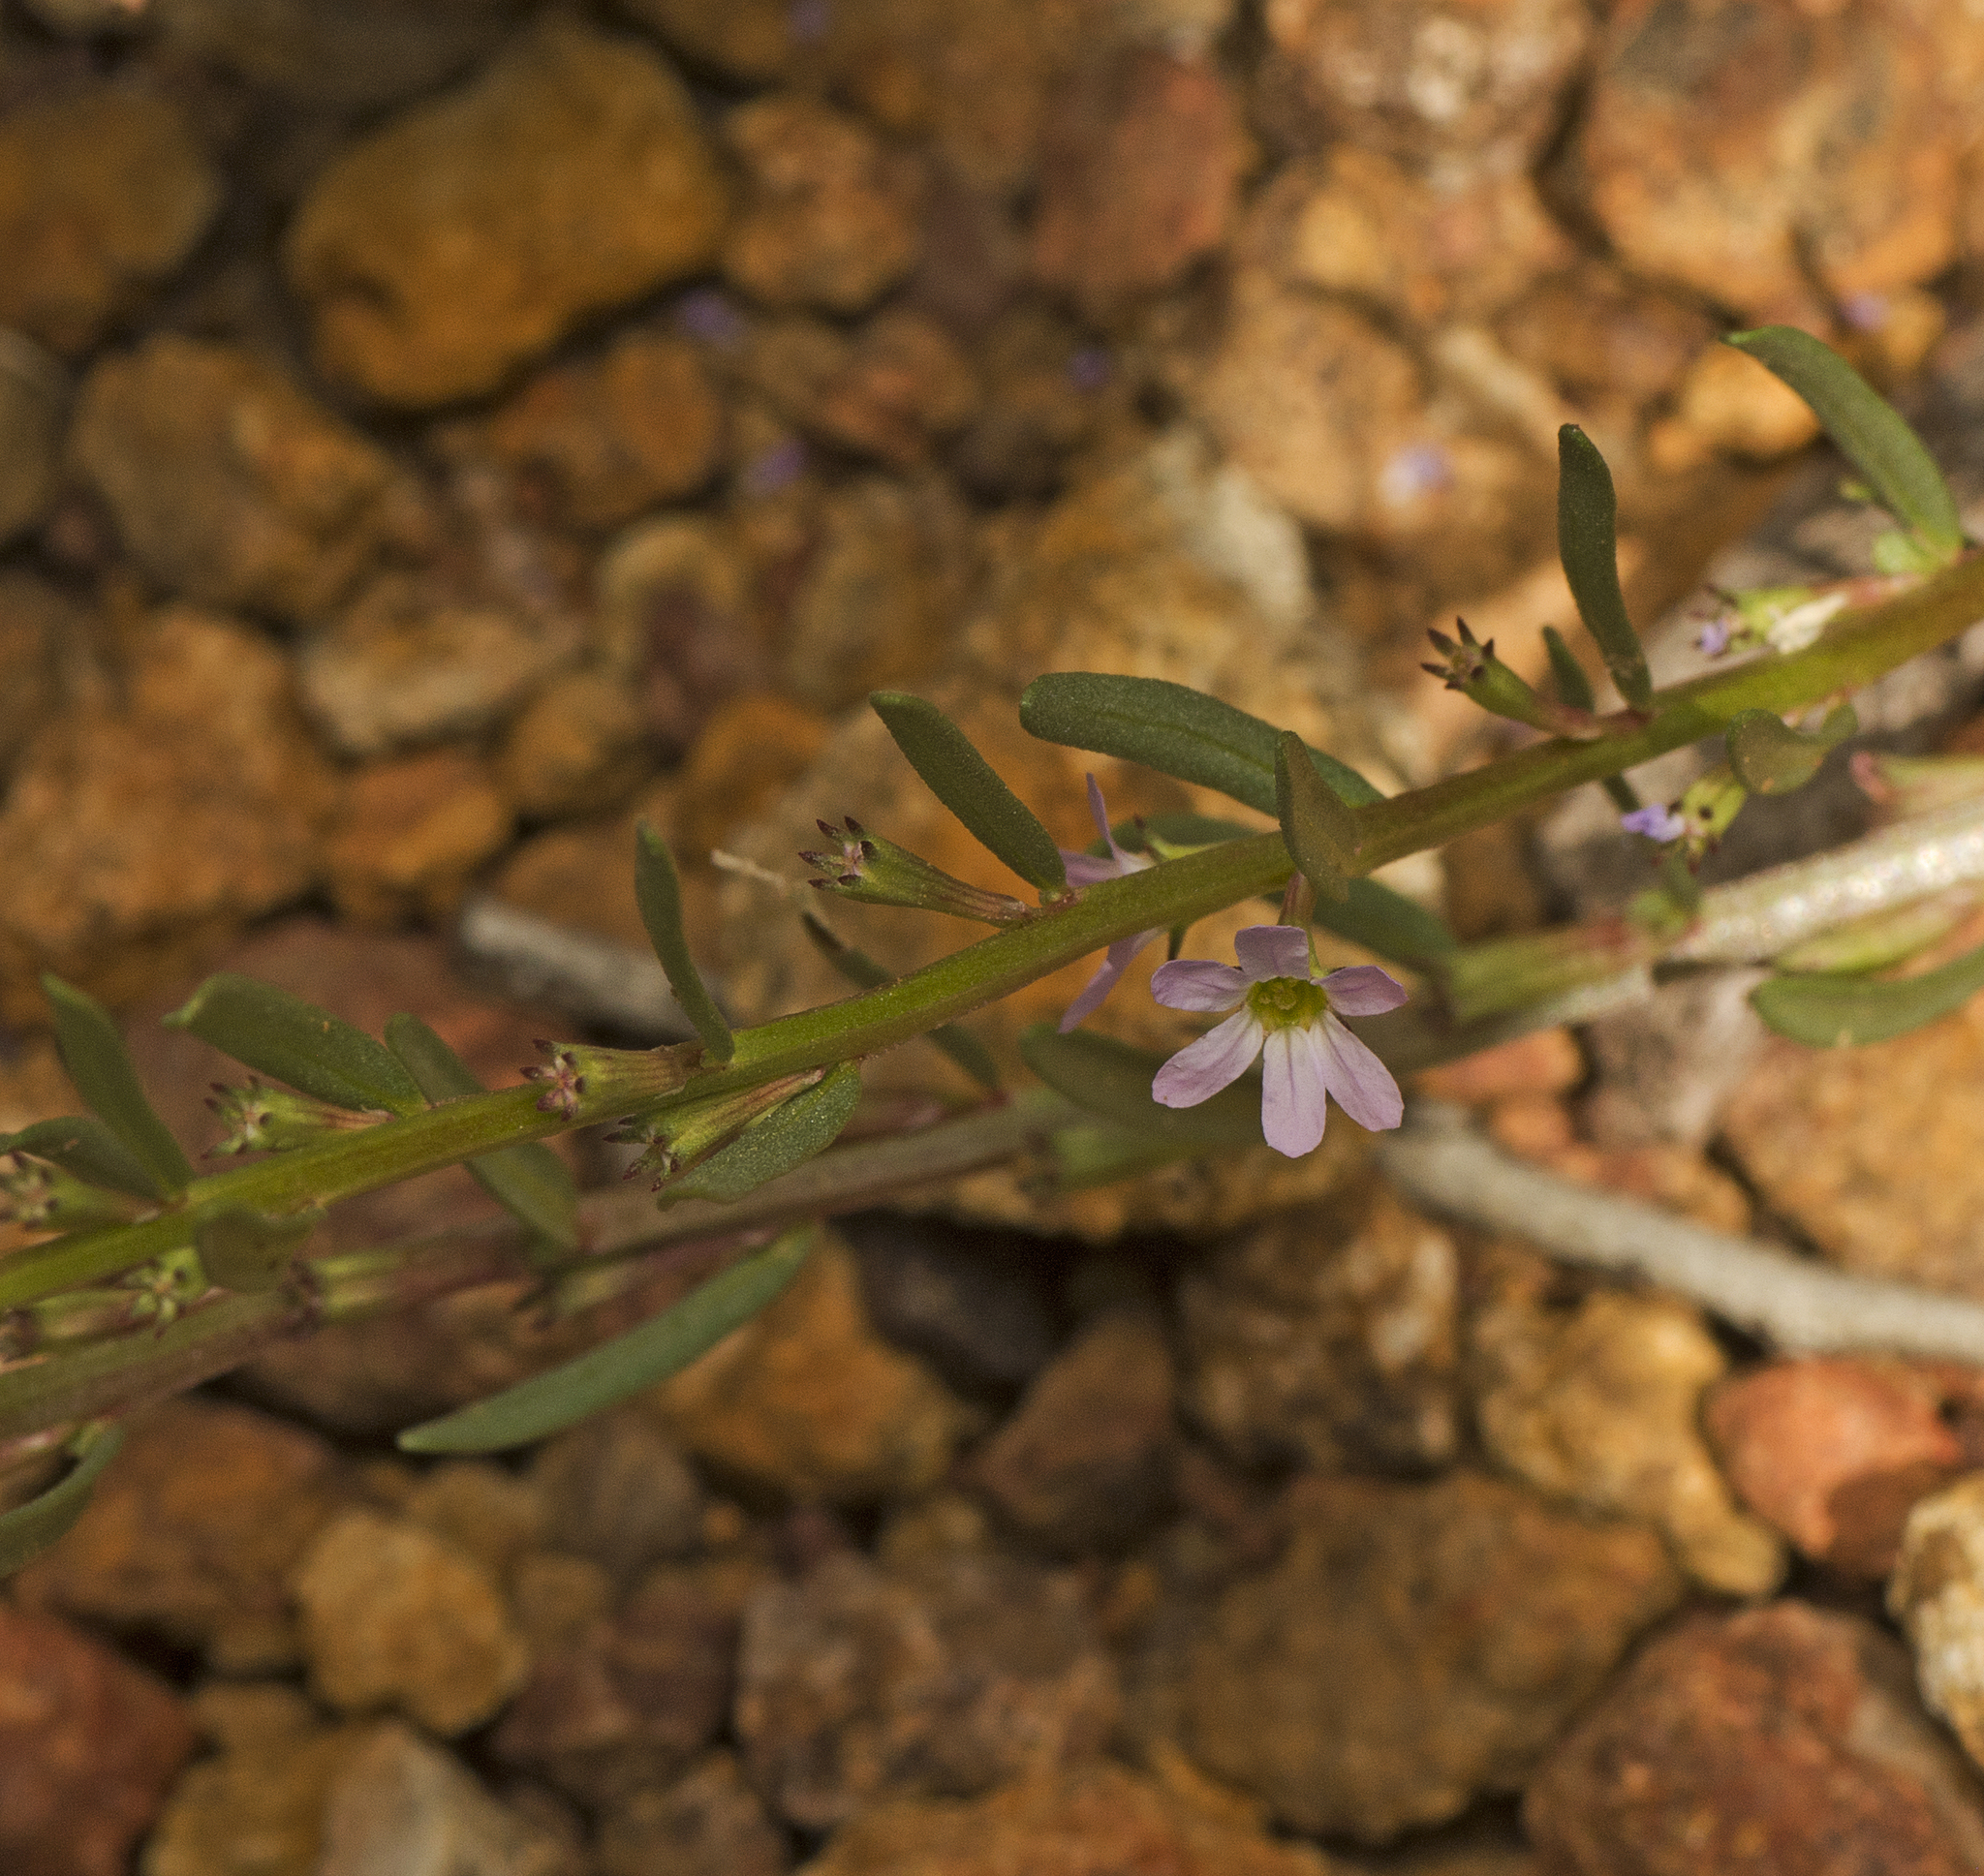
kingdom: Plantae
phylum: Tracheophyta
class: Magnoliopsida
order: Myrtales
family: Lythraceae
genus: Lythrum
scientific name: Lythrum hyssopifolia
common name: Grass-poly
